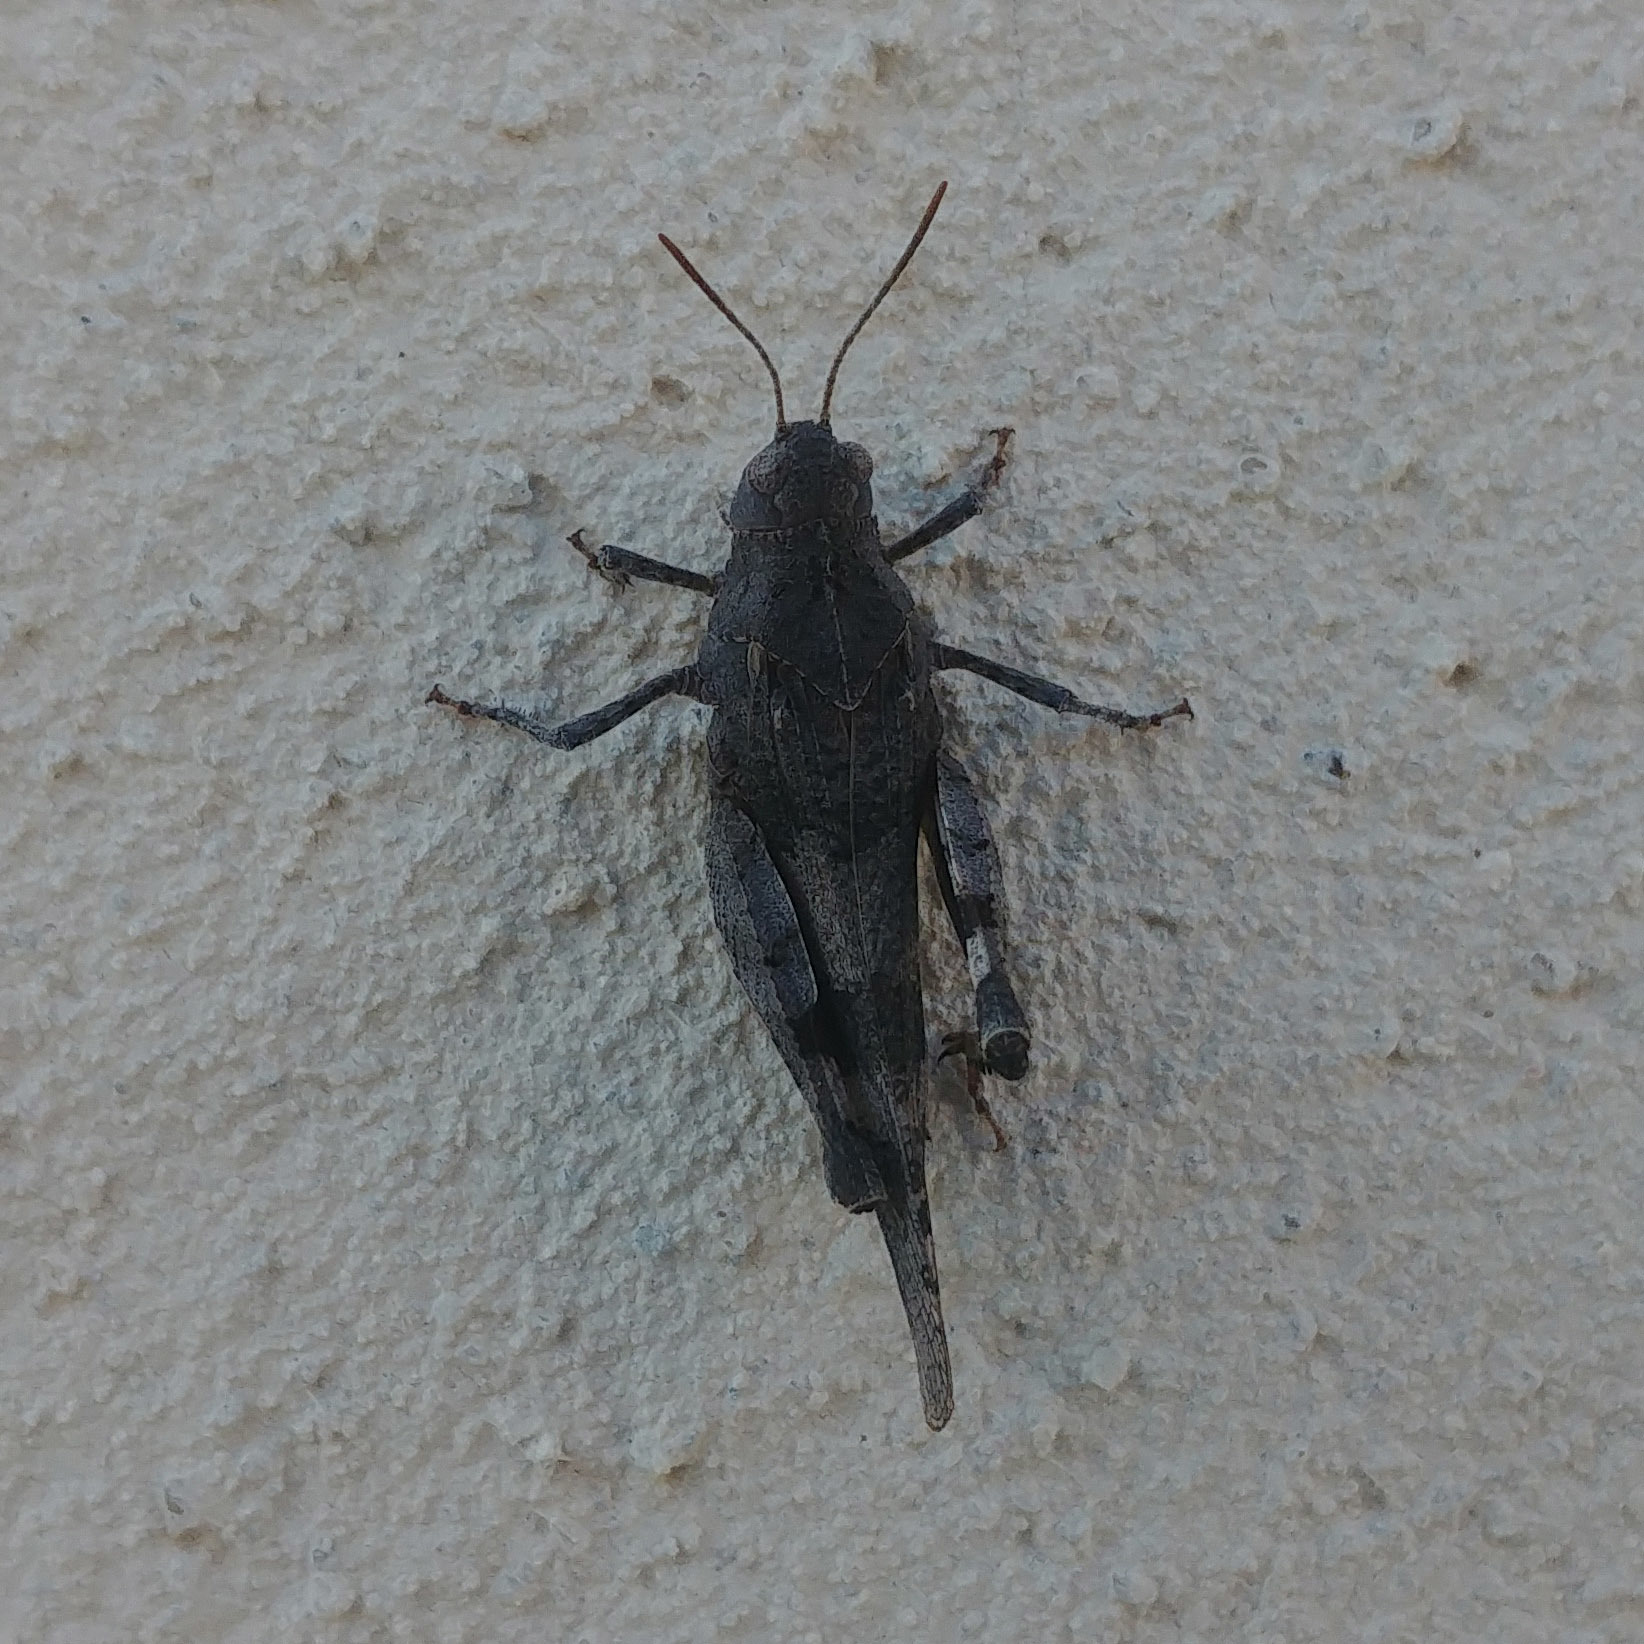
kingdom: Animalia
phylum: Arthropoda
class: Insecta
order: Orthoptera
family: Acrididae
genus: Oedipoda
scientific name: Oedipoda caerulescens
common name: Blue-winged grasshopper
